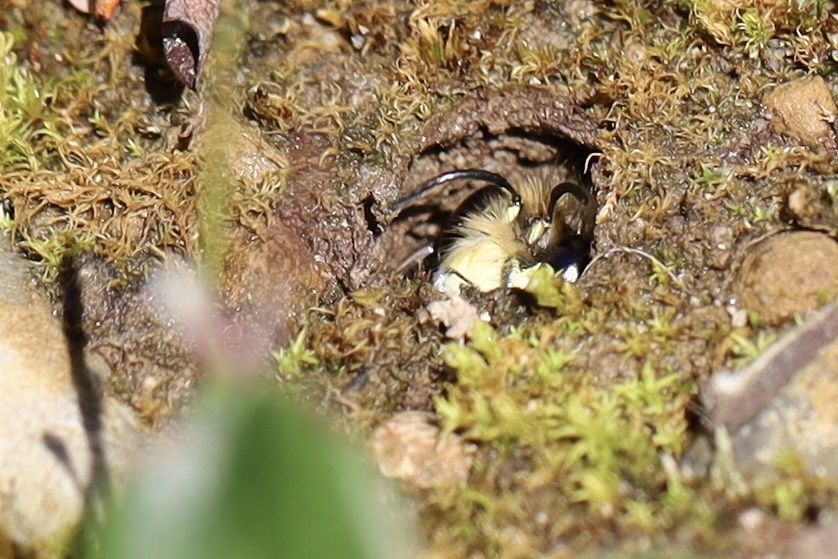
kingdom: Animalia
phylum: Arthropoda
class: Insecta
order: Hymenoptera
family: Apidae
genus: Anthophora
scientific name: Anthophora pacifica
